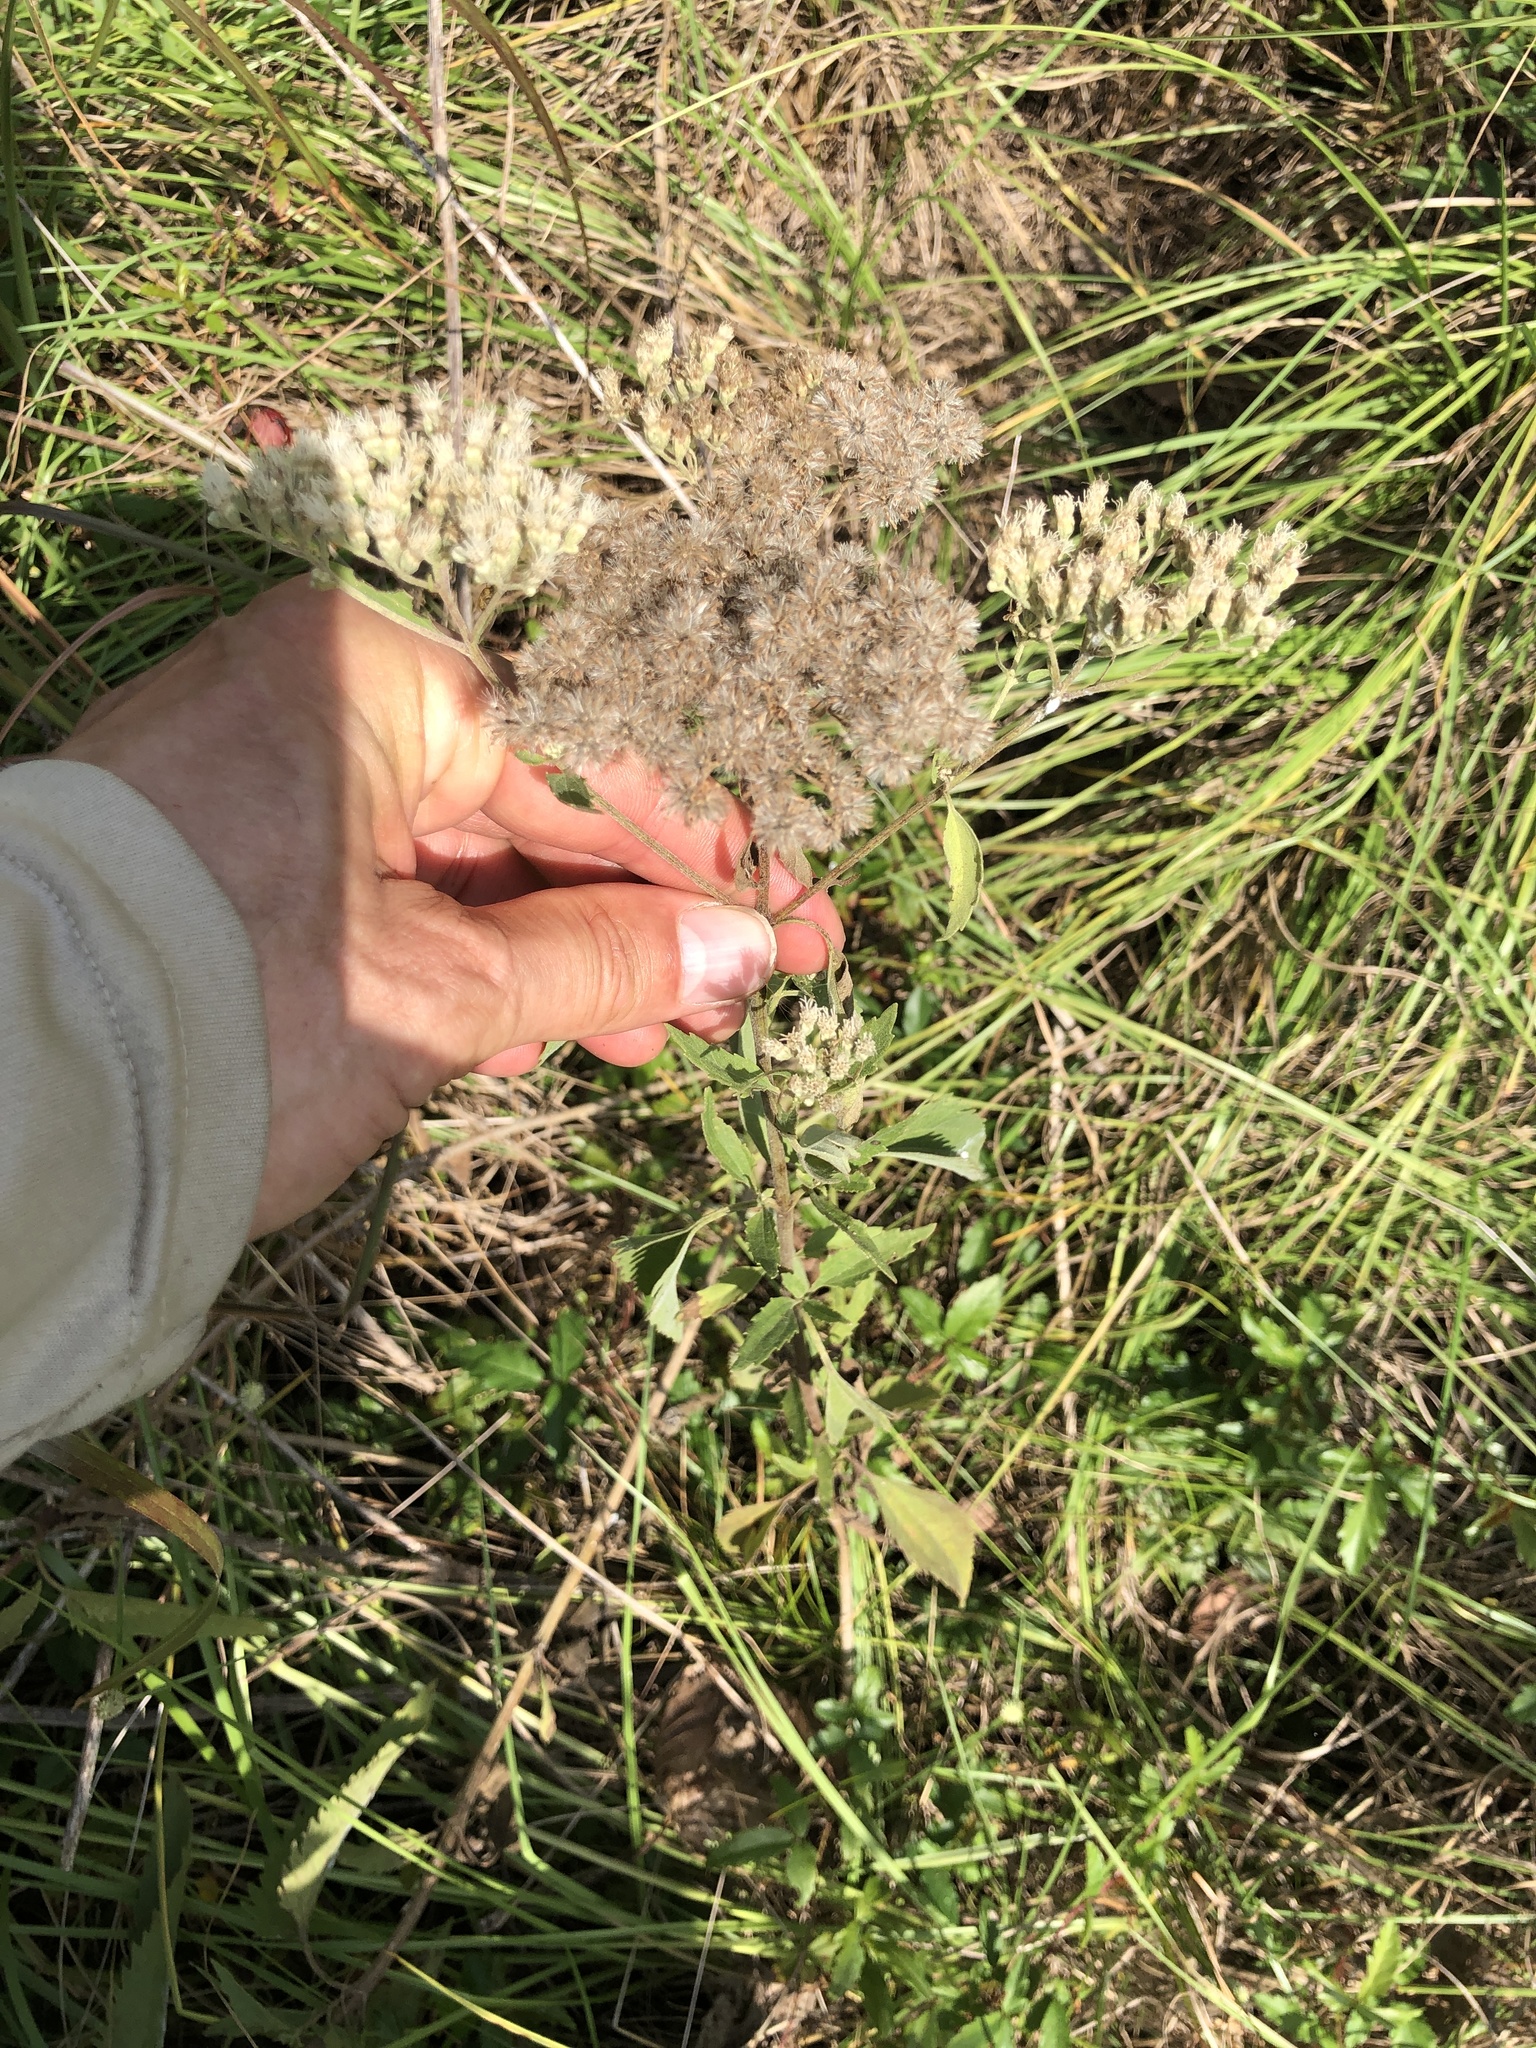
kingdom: Plantae
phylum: Tracheophyta
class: Magnoliopsida
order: Asterales
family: Asteraceae
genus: Eupatorium
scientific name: Eupatorium serotinum
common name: Late boneset
